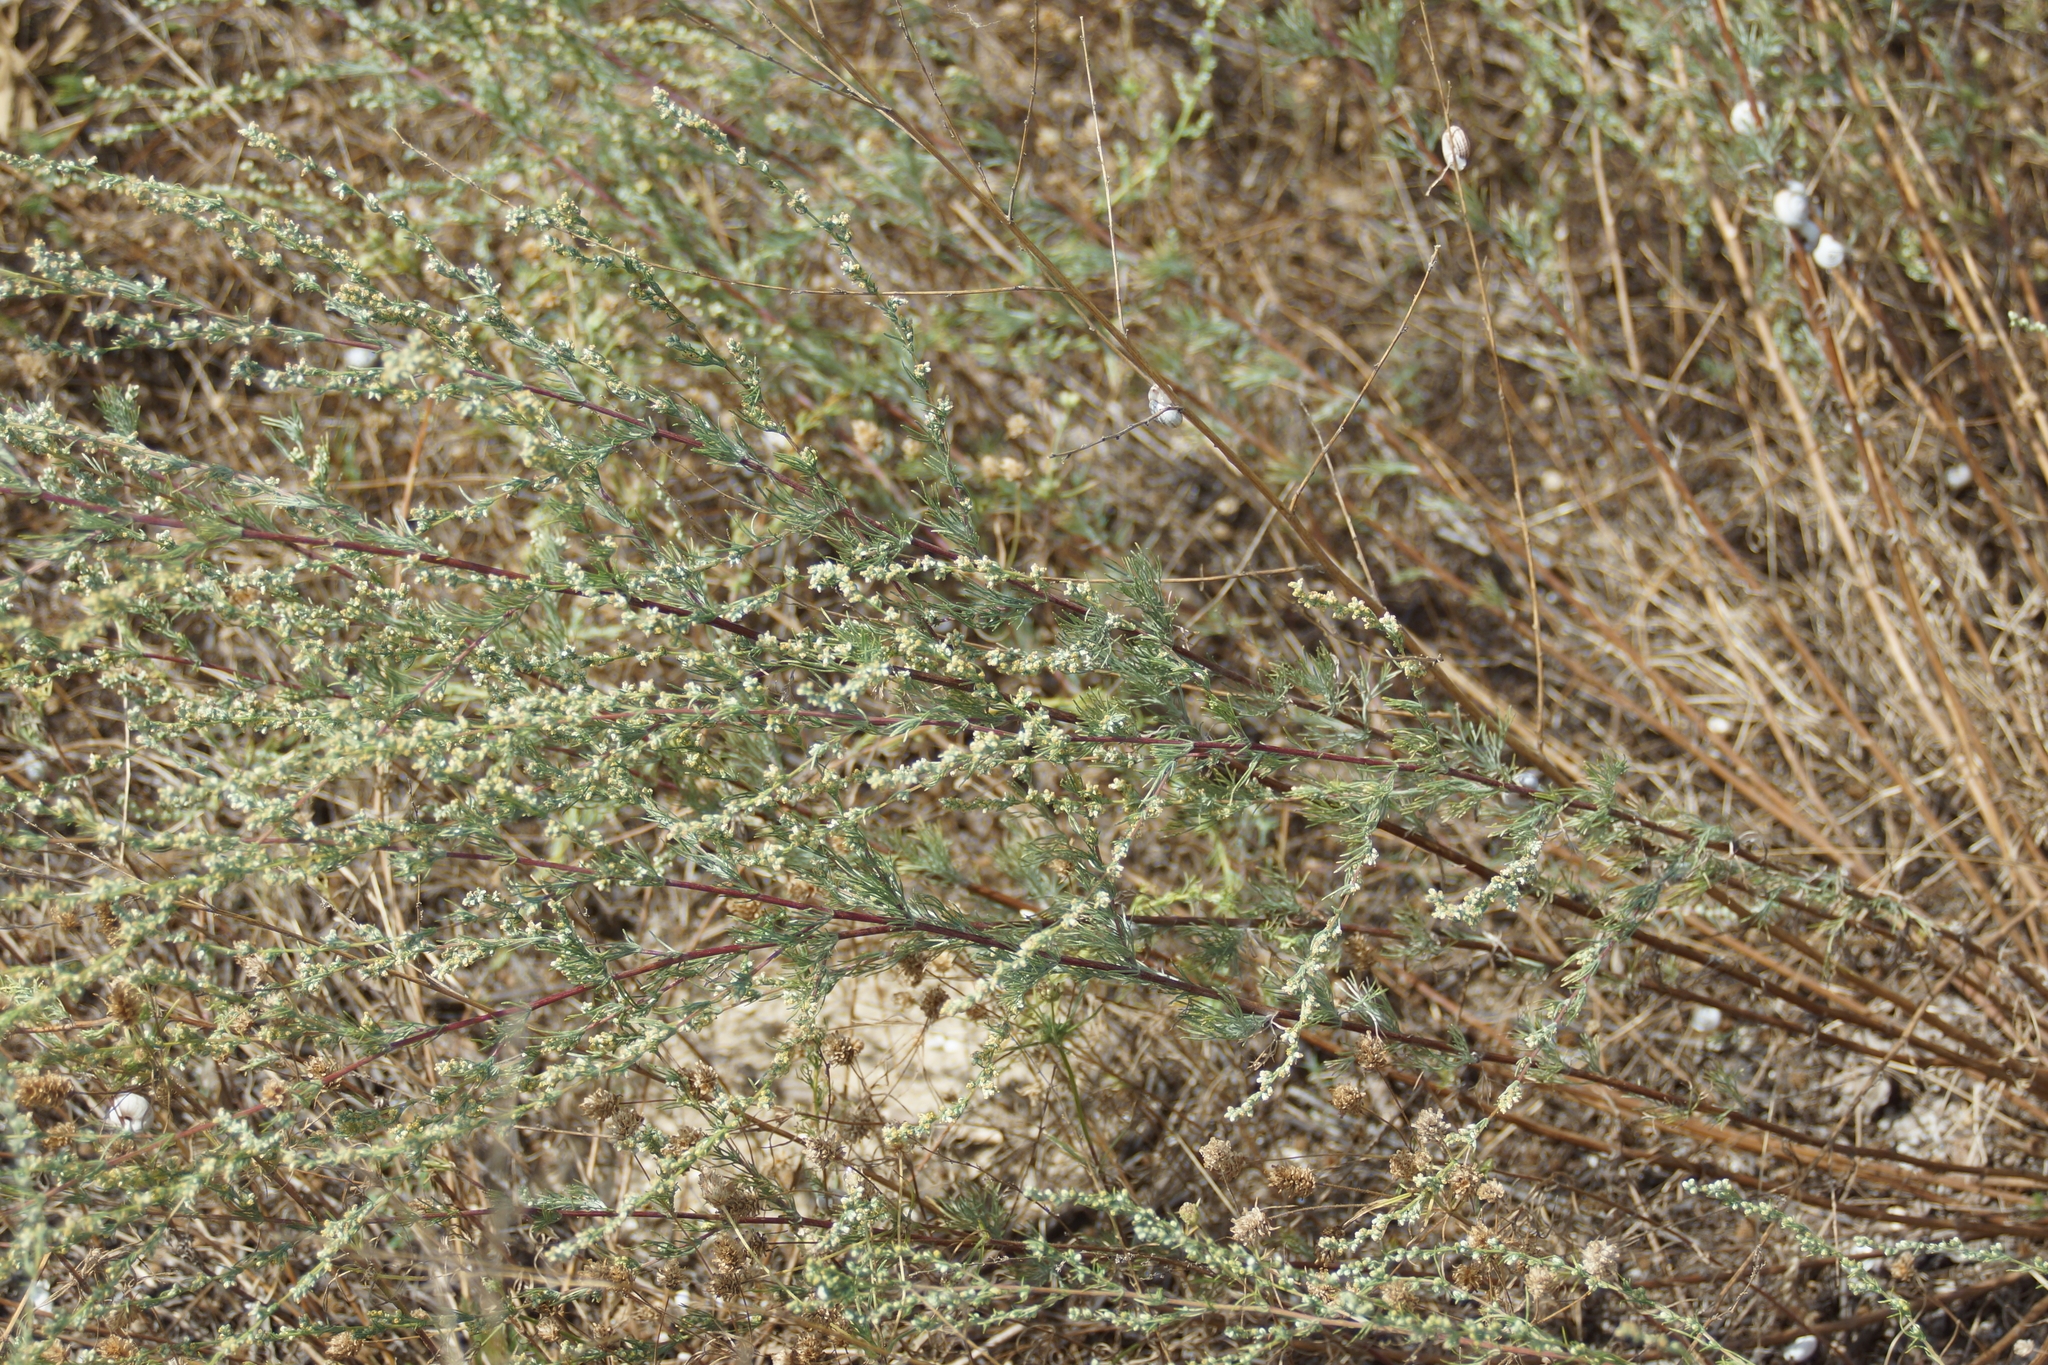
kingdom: Plantae
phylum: Tracheophyta
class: Magnoliopsida
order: Asterales
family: Asteraceae
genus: Artemisia
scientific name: Artemisia marschalliana
